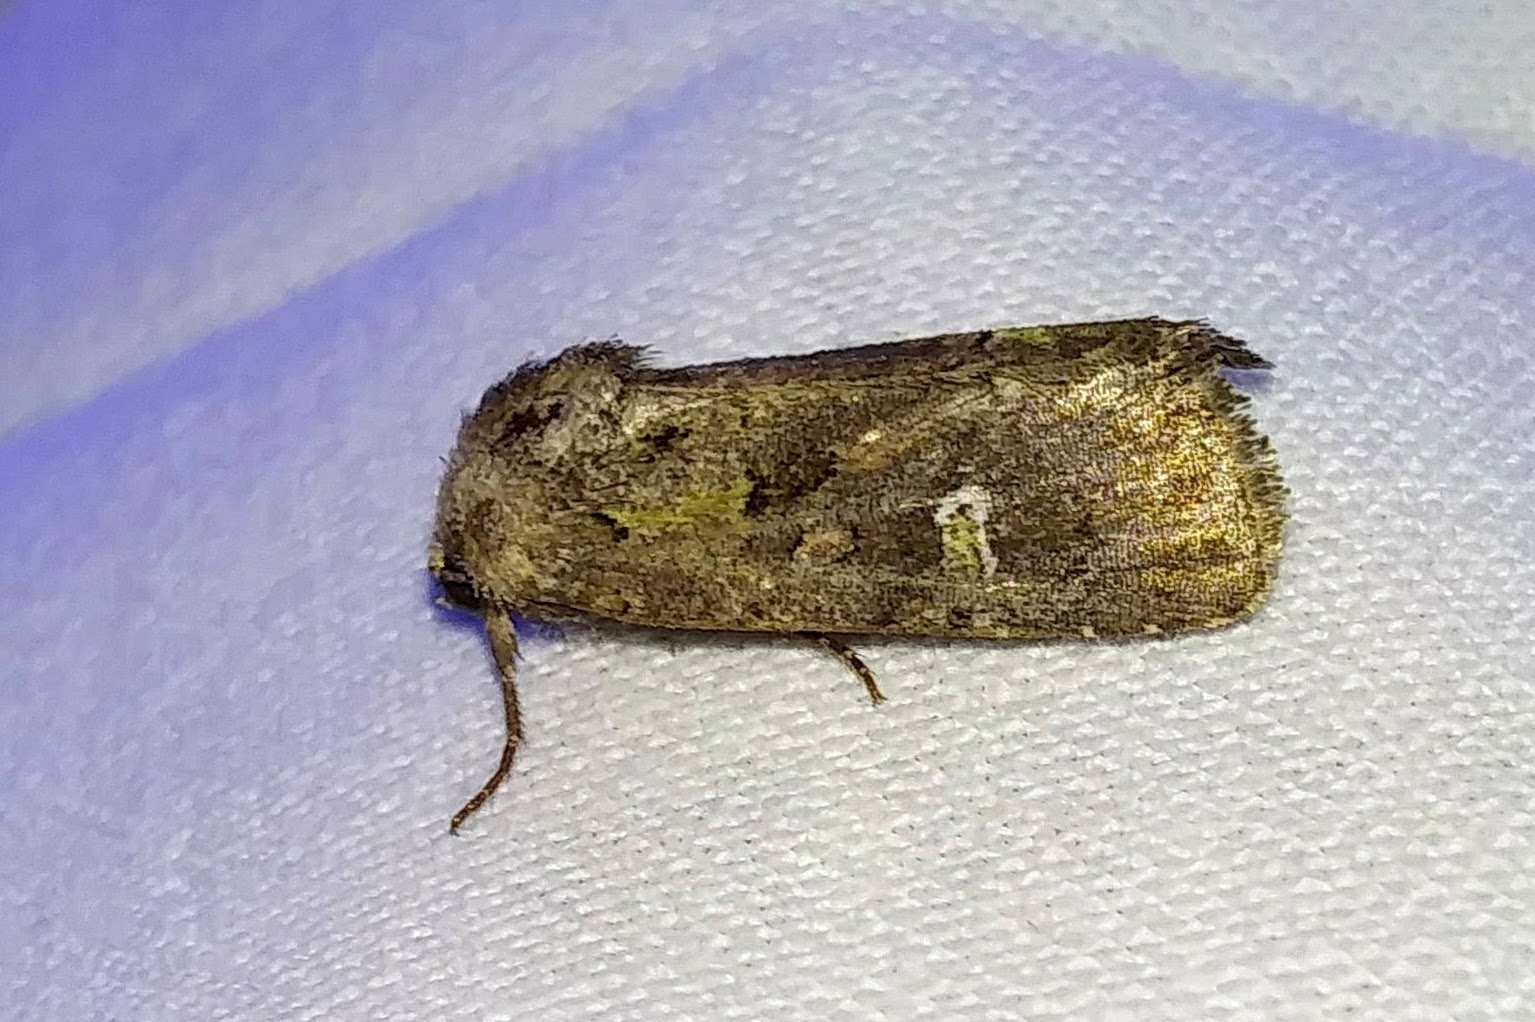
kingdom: Animalia
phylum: Arthropoda
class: Insecta
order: Lepidoptera
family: Noctuidae
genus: Lacinipolia
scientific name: Lacinipolia renigera
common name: Kidney-spotted minor
